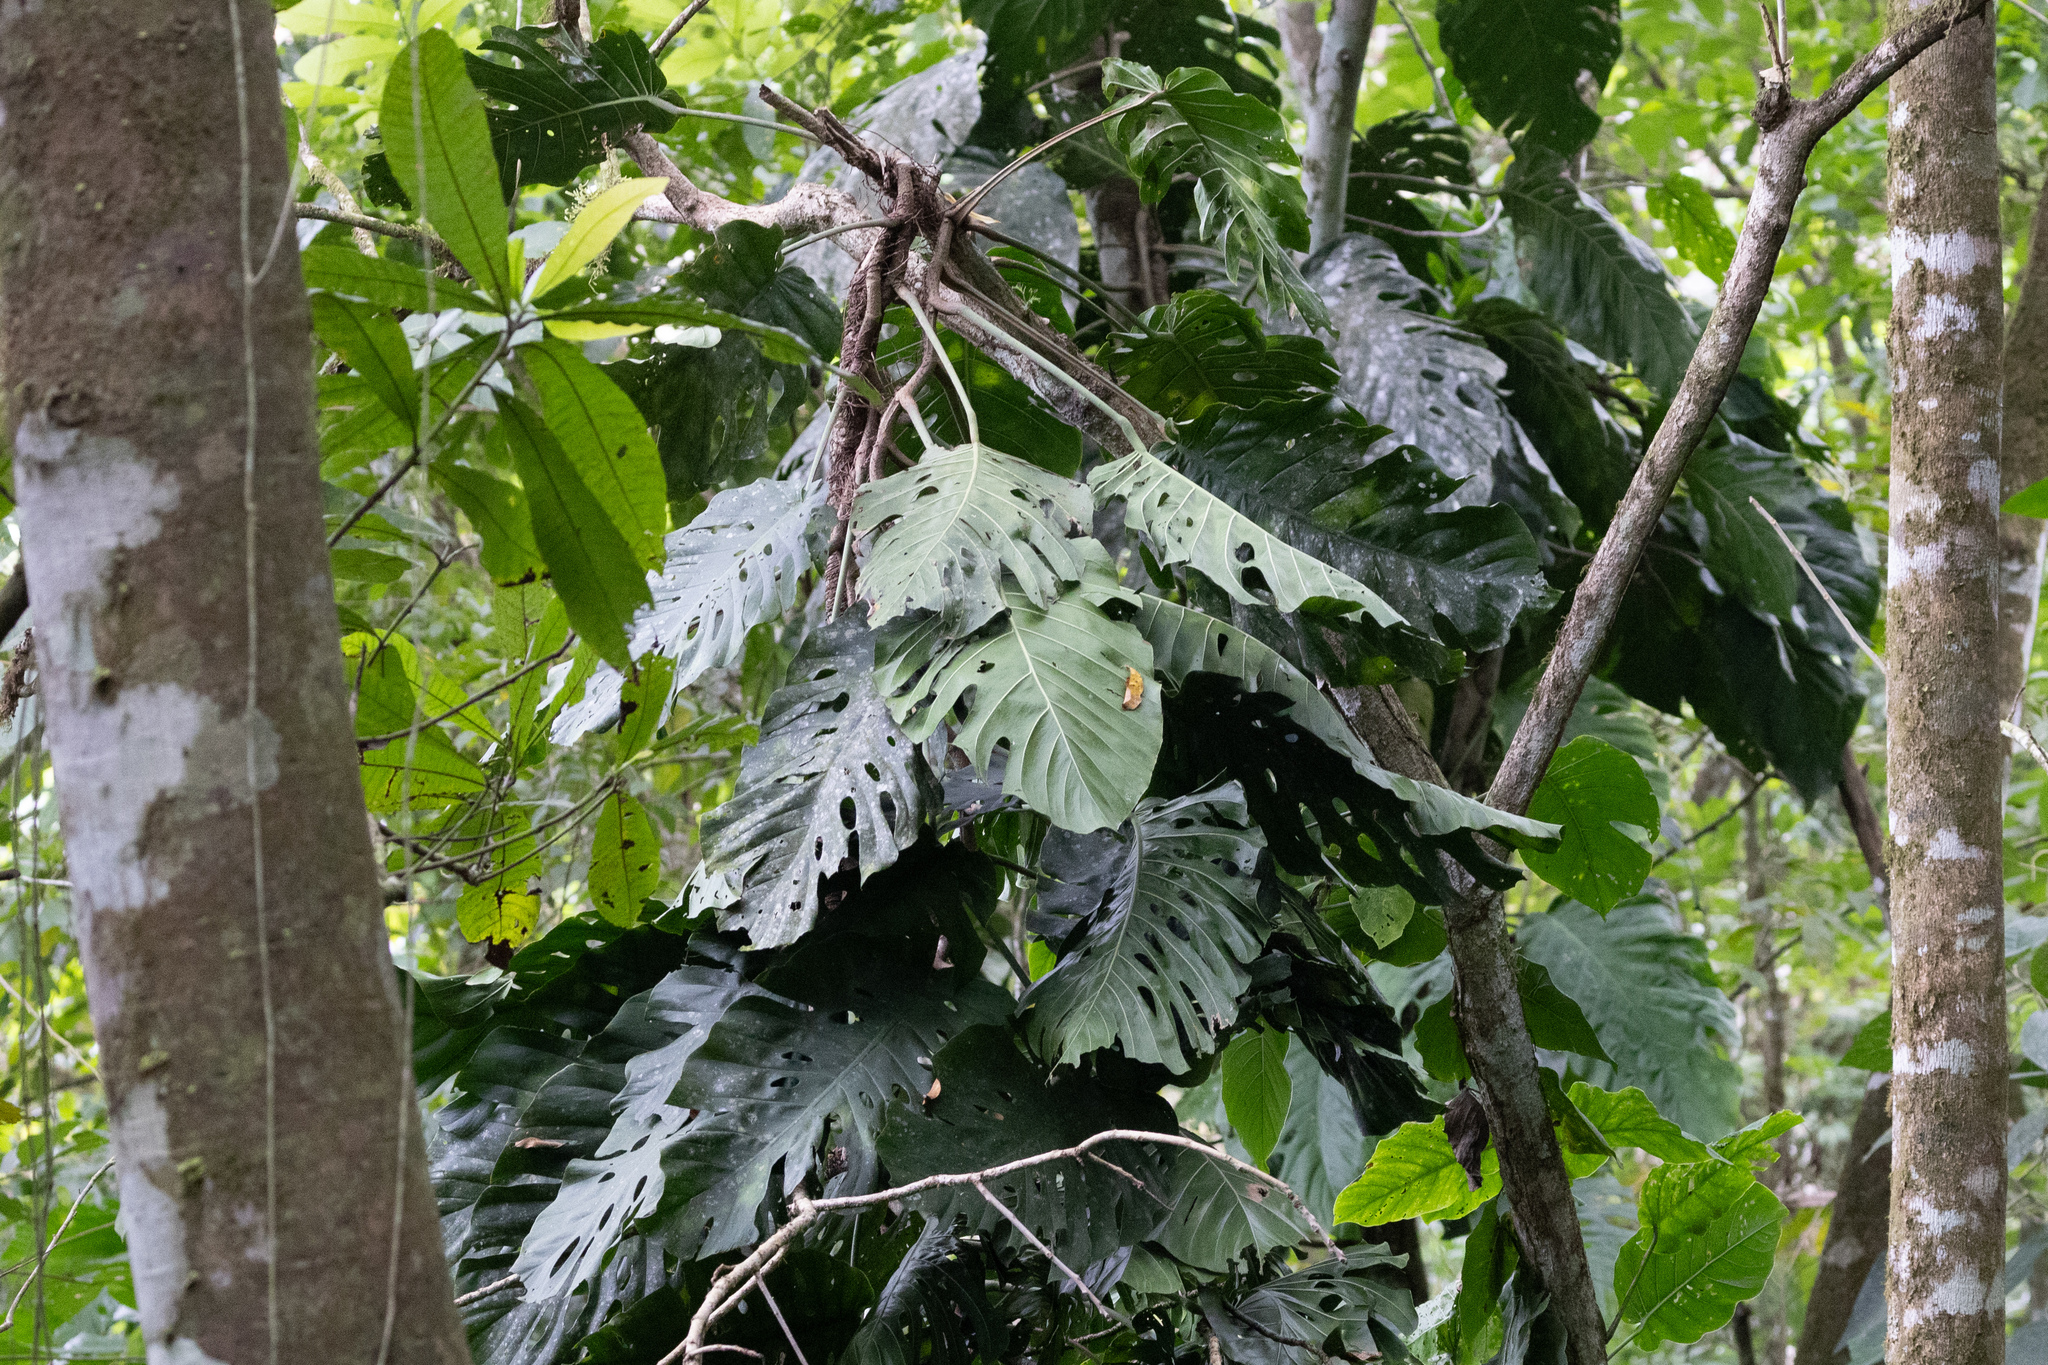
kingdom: Plantae
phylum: Tracheophyta
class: Liliopsida
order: Alismatales
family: Araceae
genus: Monstera
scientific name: Monstera dubia
